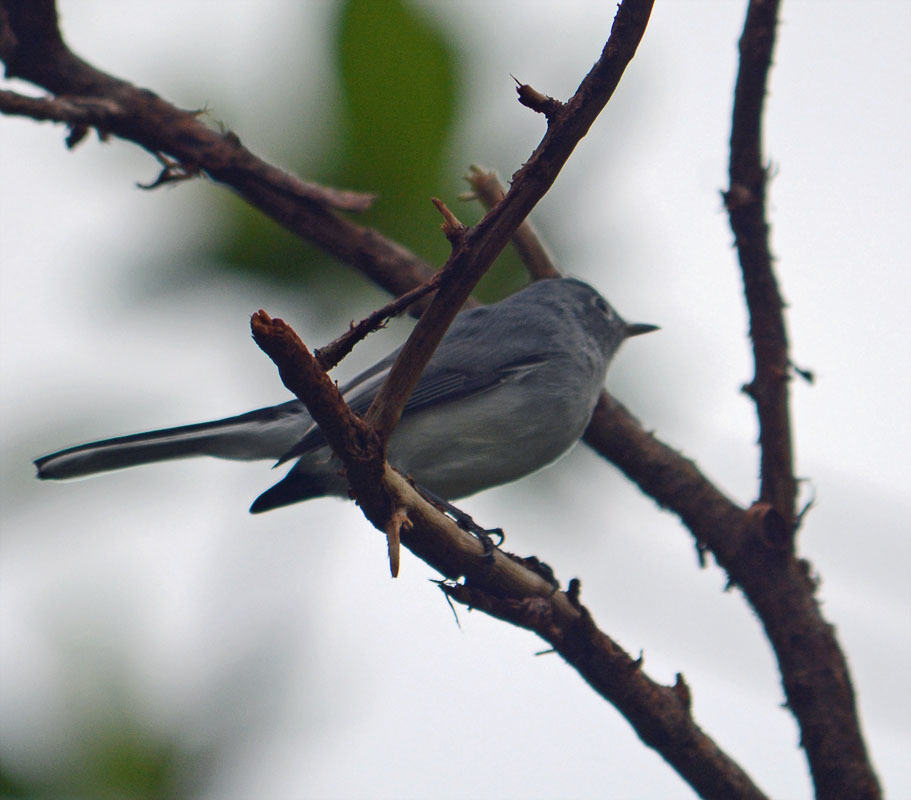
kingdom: Animalia
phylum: Chordata
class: Aves
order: Passeriformes
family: Polioptilidae
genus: Polioptila
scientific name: Polioptila caerulea
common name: Blue-gray gnatcatcher
